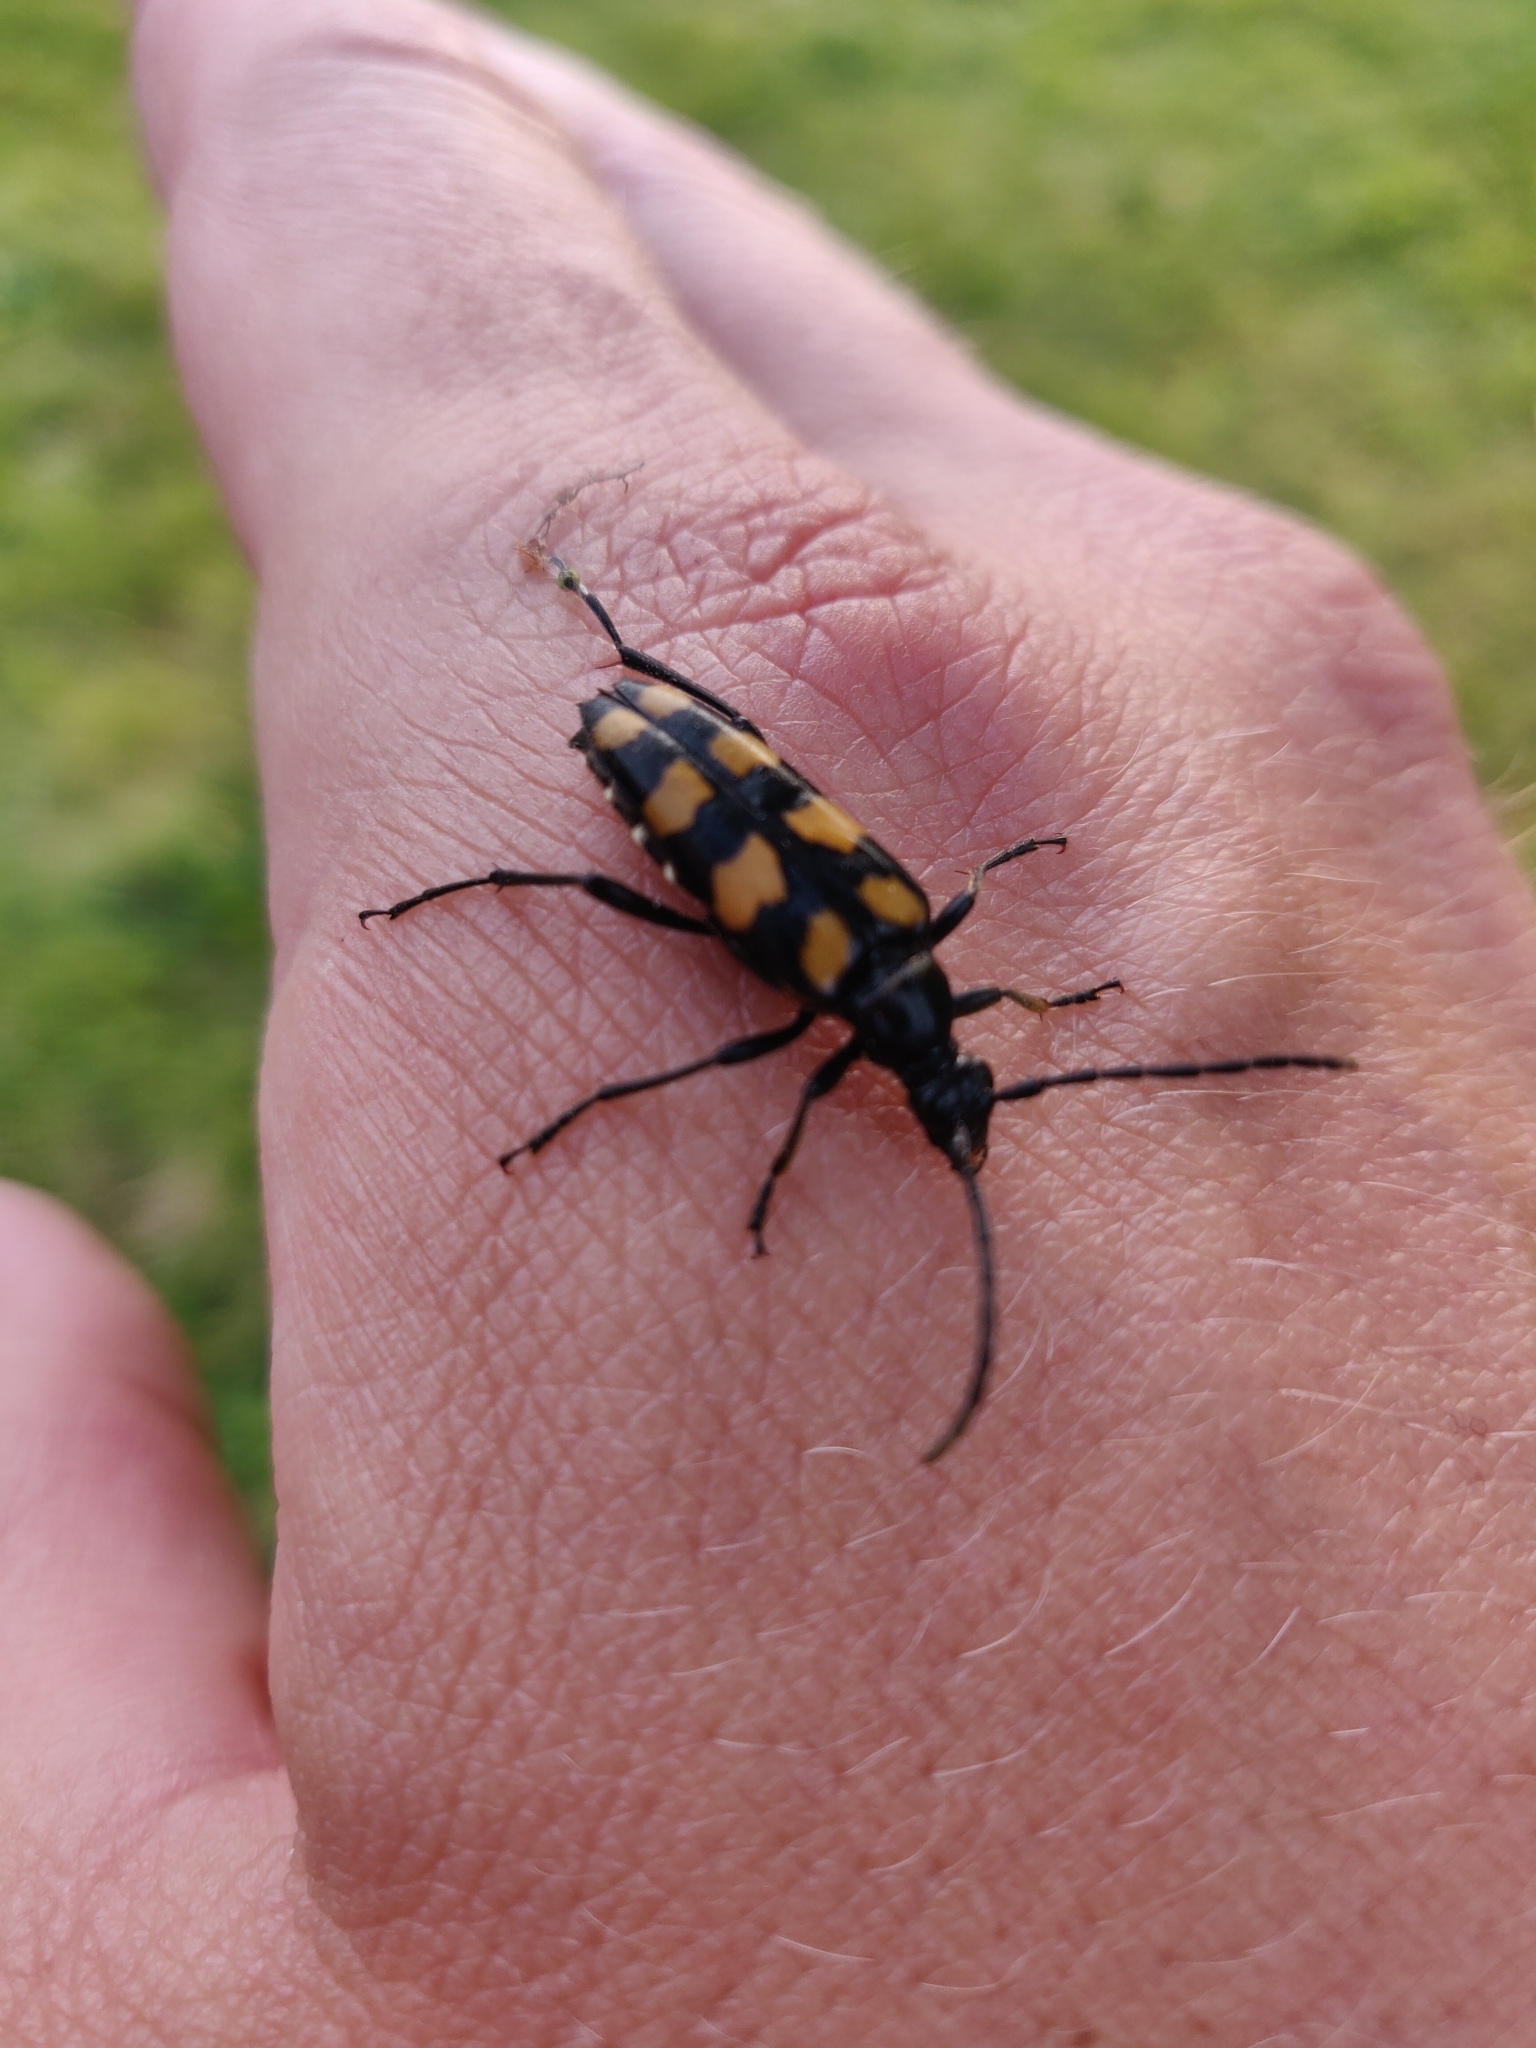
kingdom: Animalia
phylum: Arthropoda
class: Insecta
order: Coleoptera
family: Cerambycidae
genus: Leptura
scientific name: Leptura quadrifasciata
